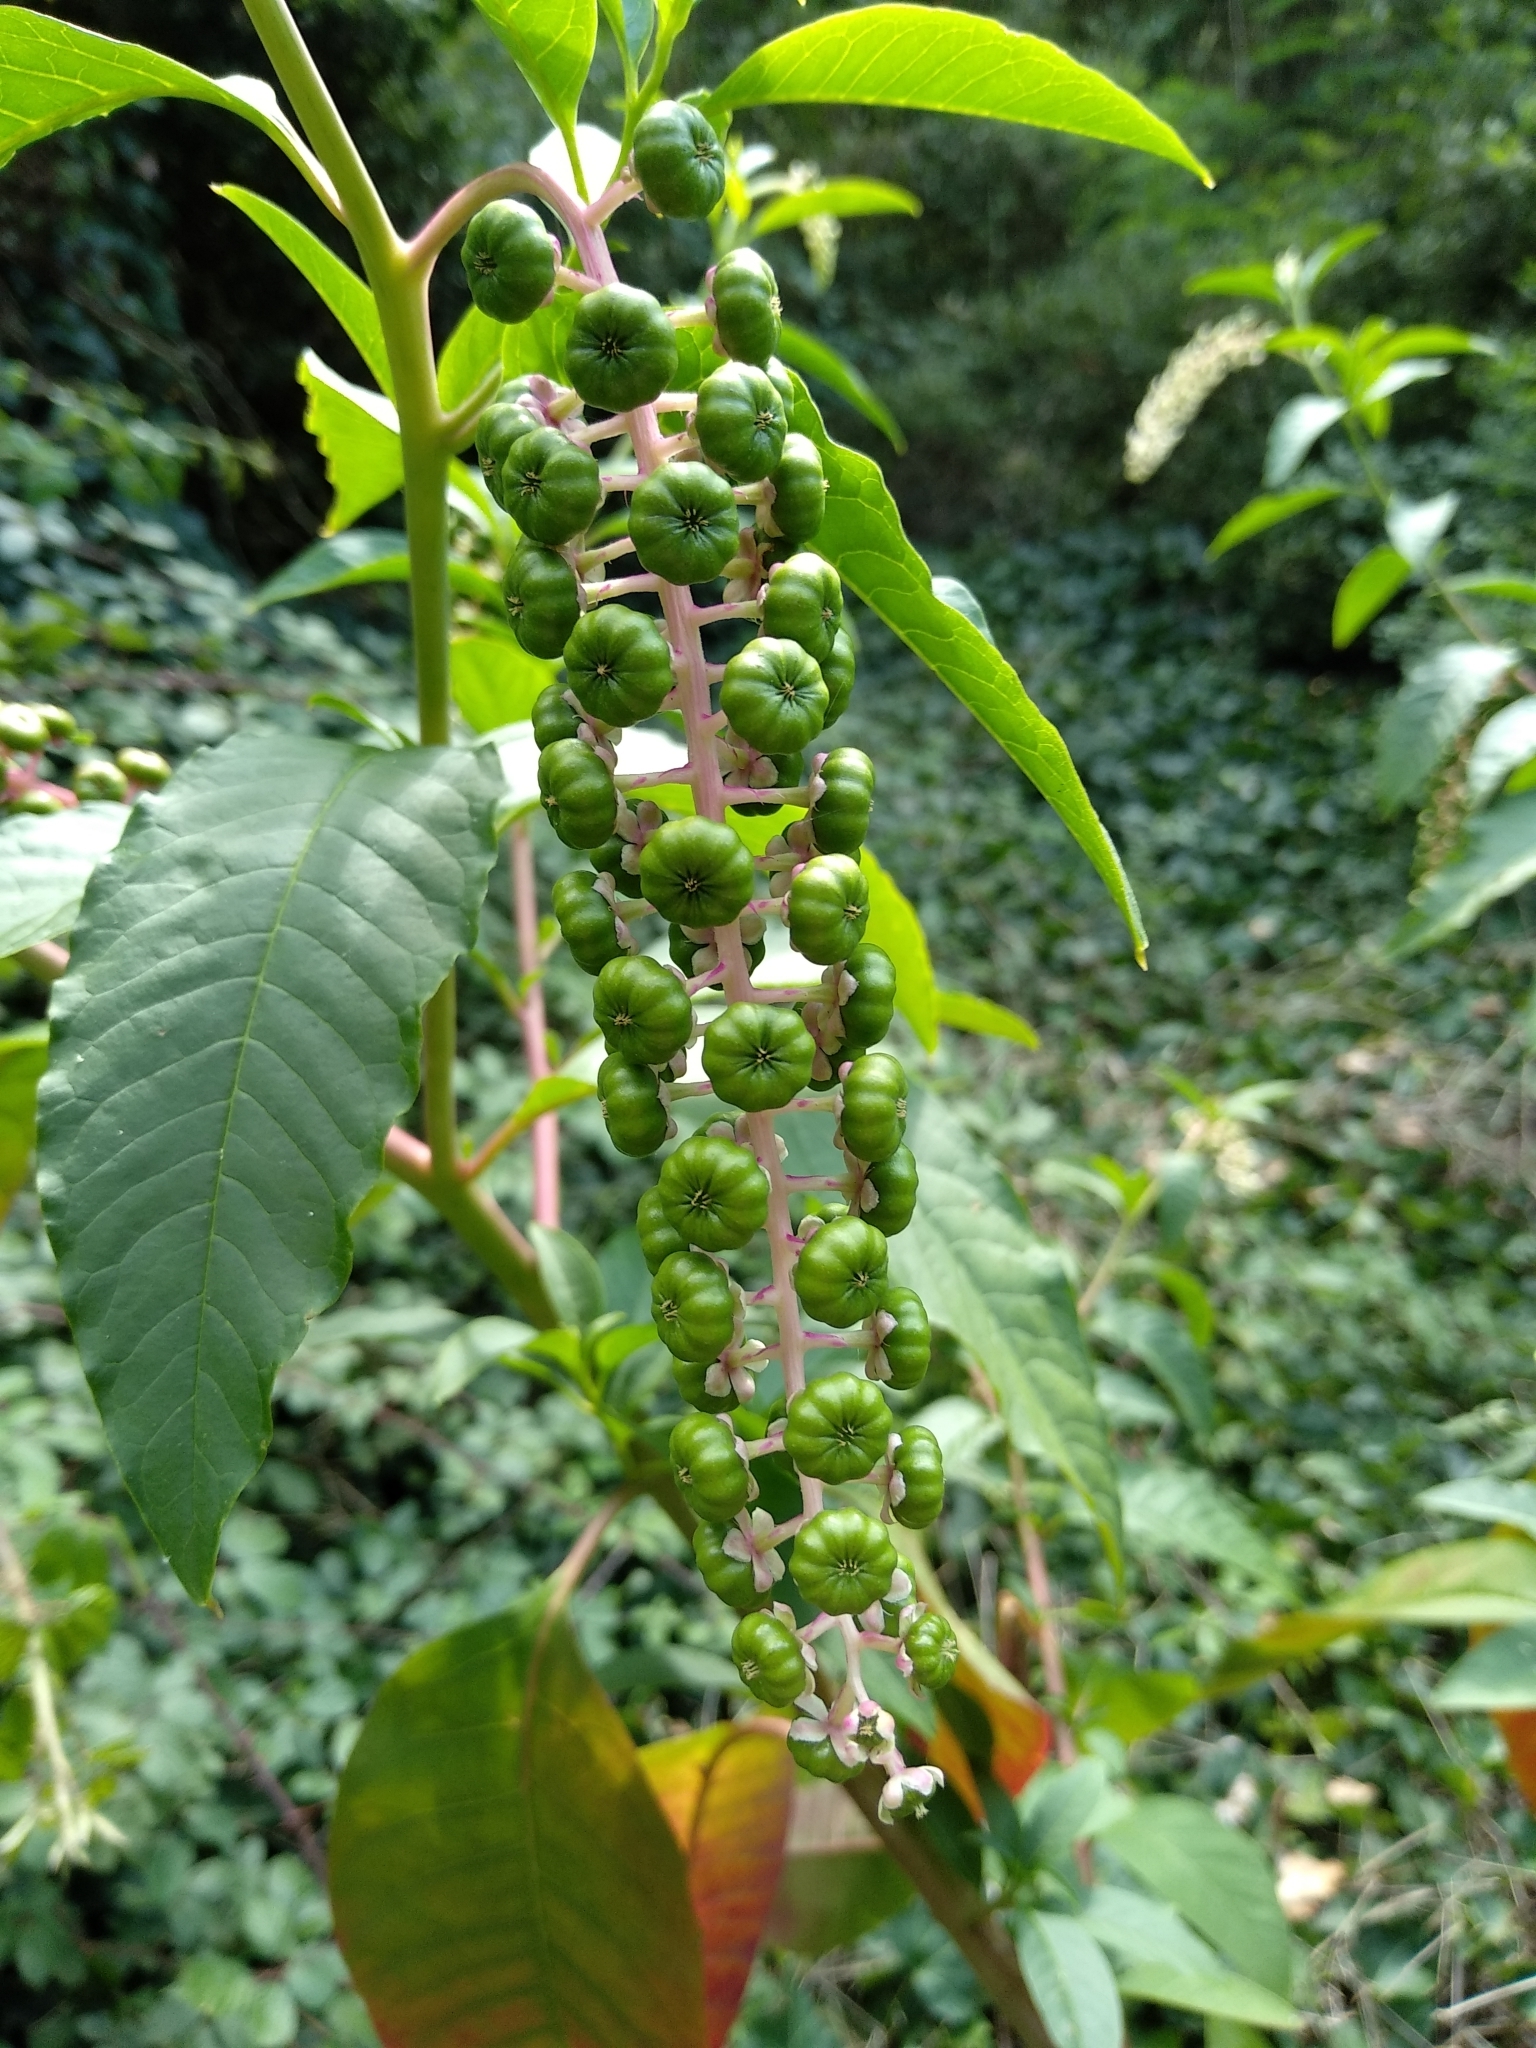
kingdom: Plantae
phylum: Tracheophyta
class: Magnoliopsida
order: Caryophyllales
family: Phytolaccaceae
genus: Phytolacca
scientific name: Phytolacca americana
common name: American pokeweed
